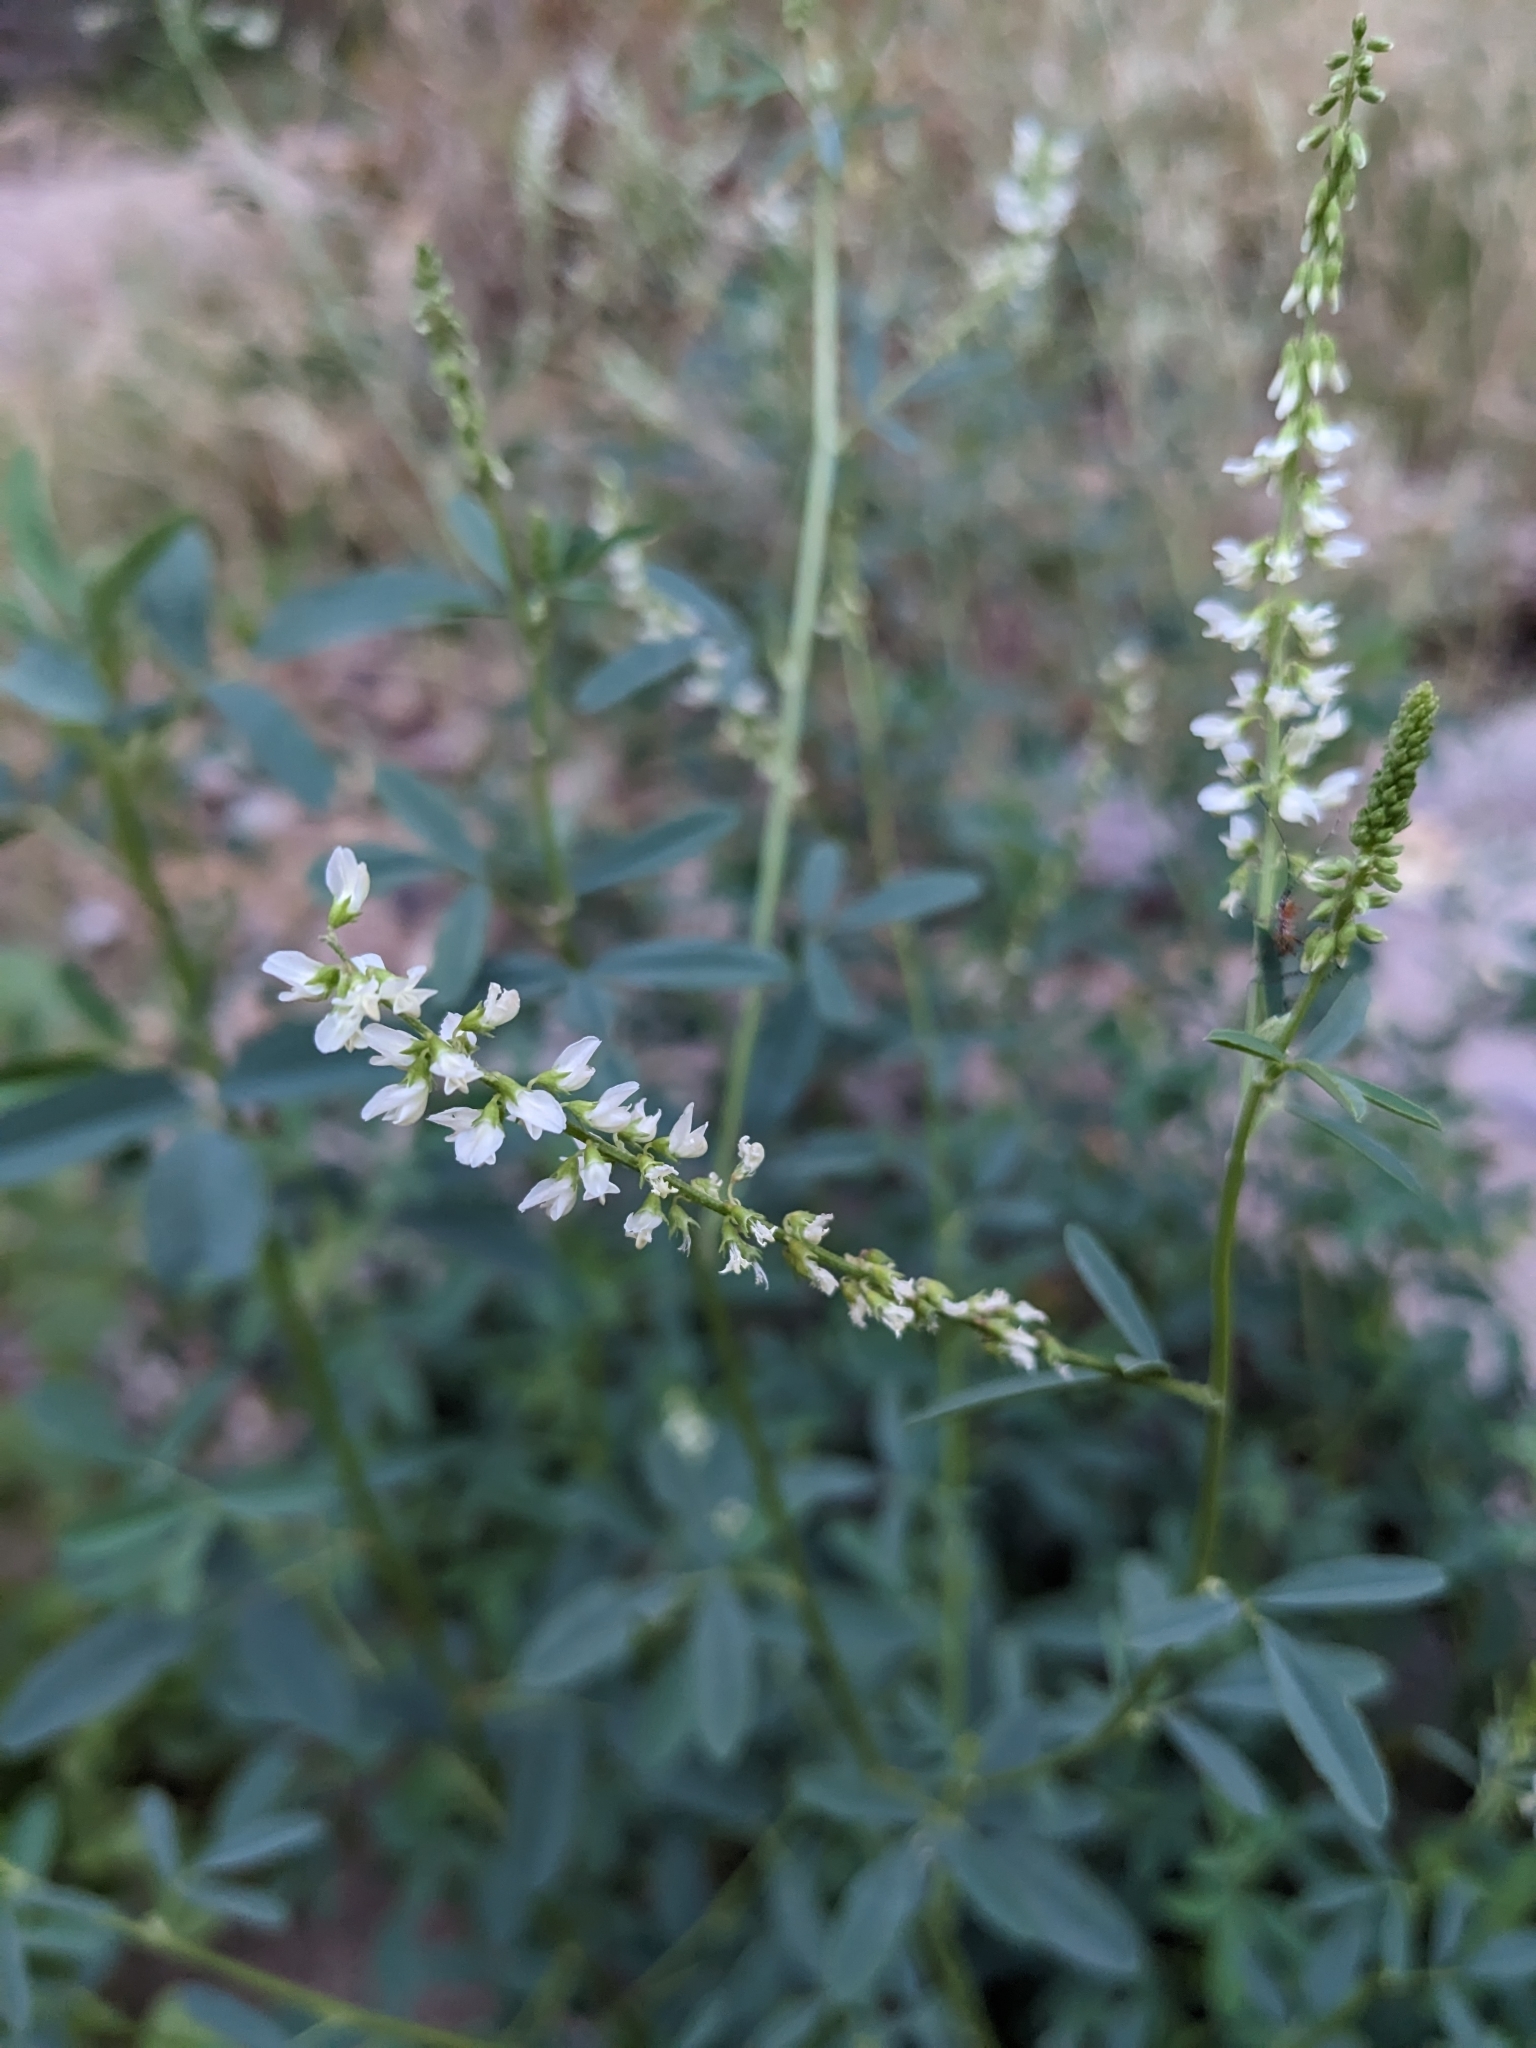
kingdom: Plantae
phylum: Tracheophyta
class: Magnoliopsida
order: Fabales
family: Fabaceae
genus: Melilotus
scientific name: Melilotus albus
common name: White melilot
